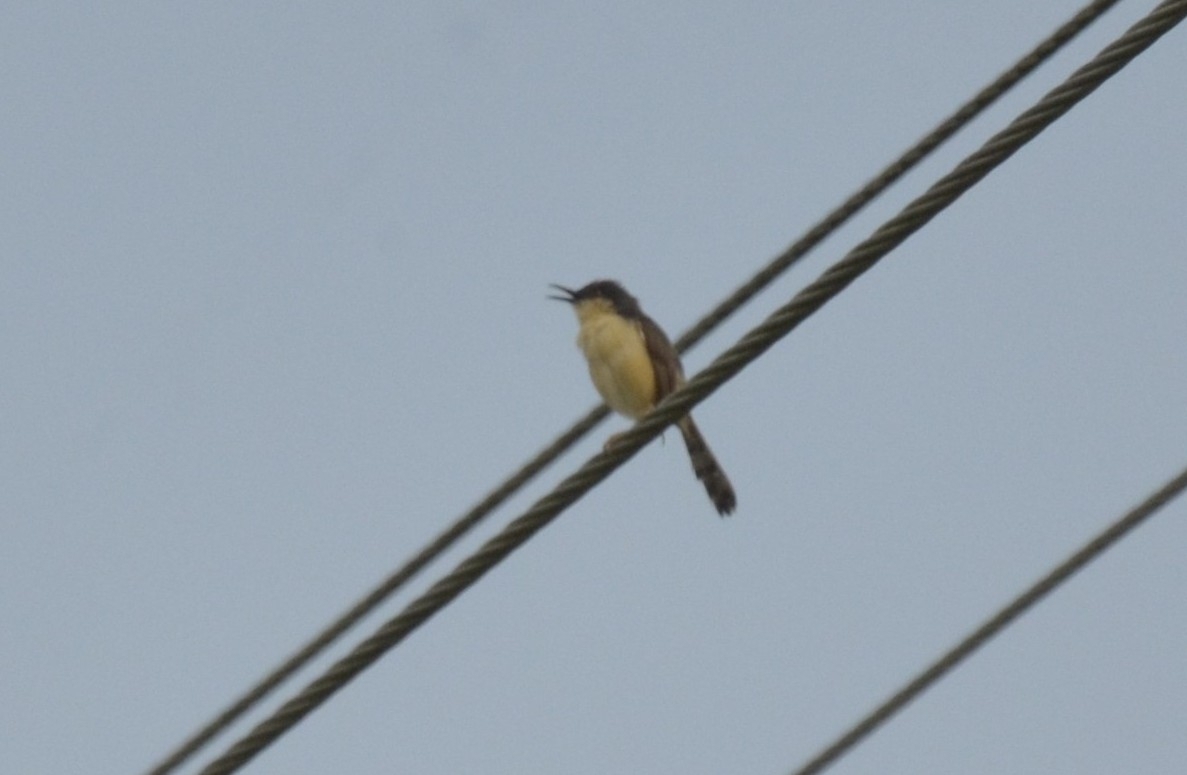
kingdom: Animalia
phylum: Chordata
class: Aves
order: Passeriformes
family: Cisticolidae
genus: Prinia
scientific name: Prinia socialis
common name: Ashy prinia
